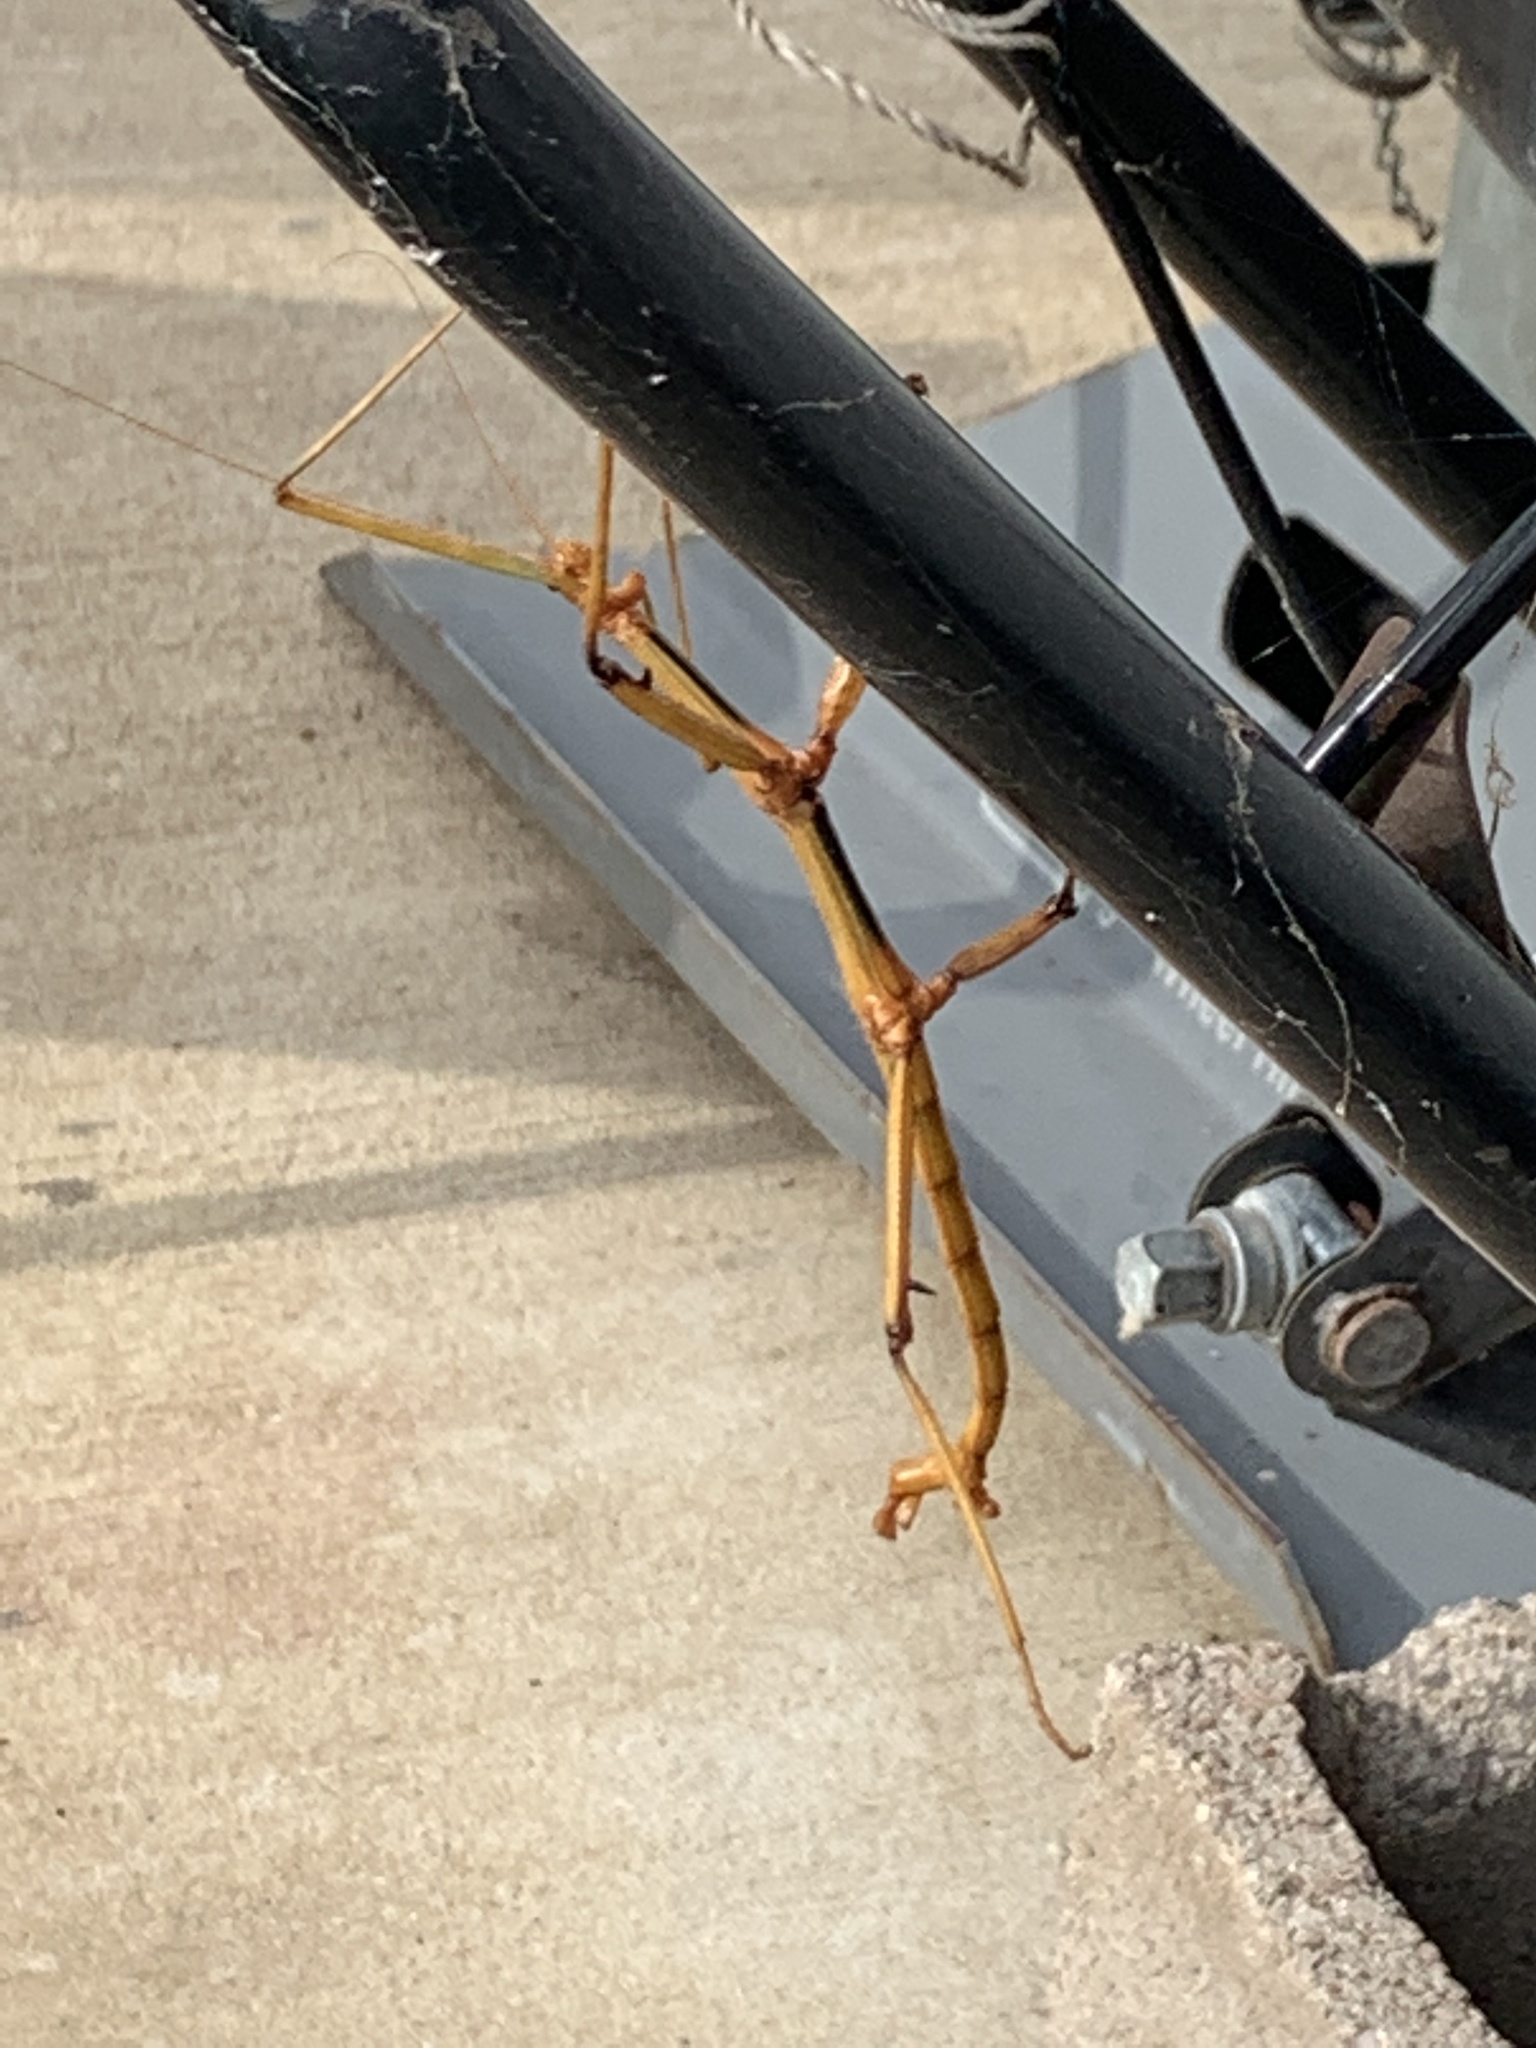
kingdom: Animalia
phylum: Arthropoda
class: Insecta
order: Phasmida
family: Diapheromeridae
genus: Megaphasma
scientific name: Megaphasma denticrus
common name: Giant walkingstick
